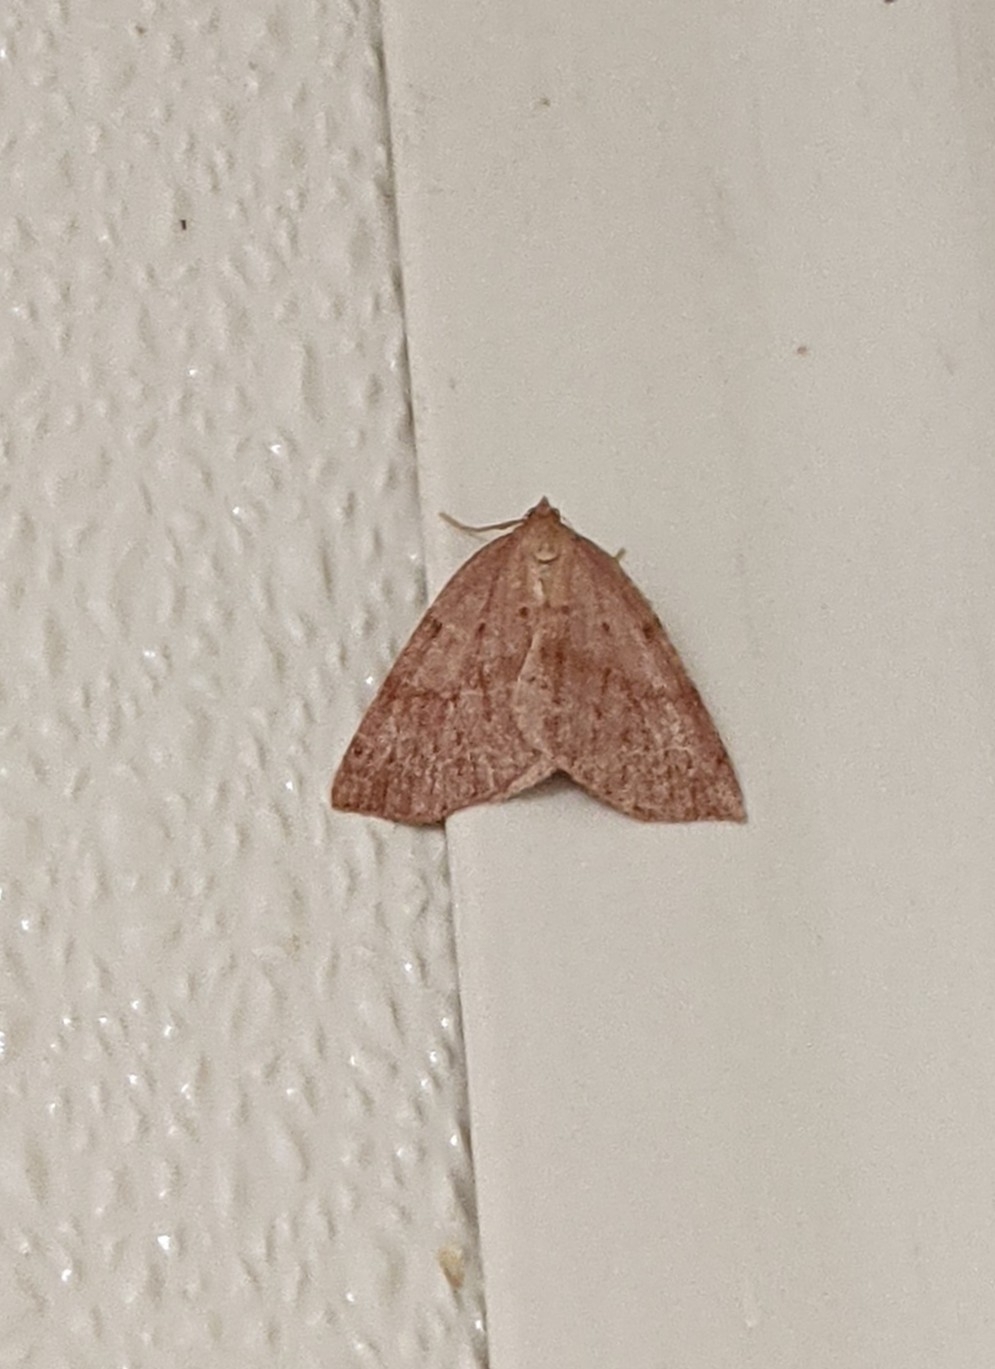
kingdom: Animalia
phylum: Arthropoda
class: Insecta
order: Lepidoptera
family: Geometridae
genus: Thallophaga
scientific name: Thallophaga hyperborea
